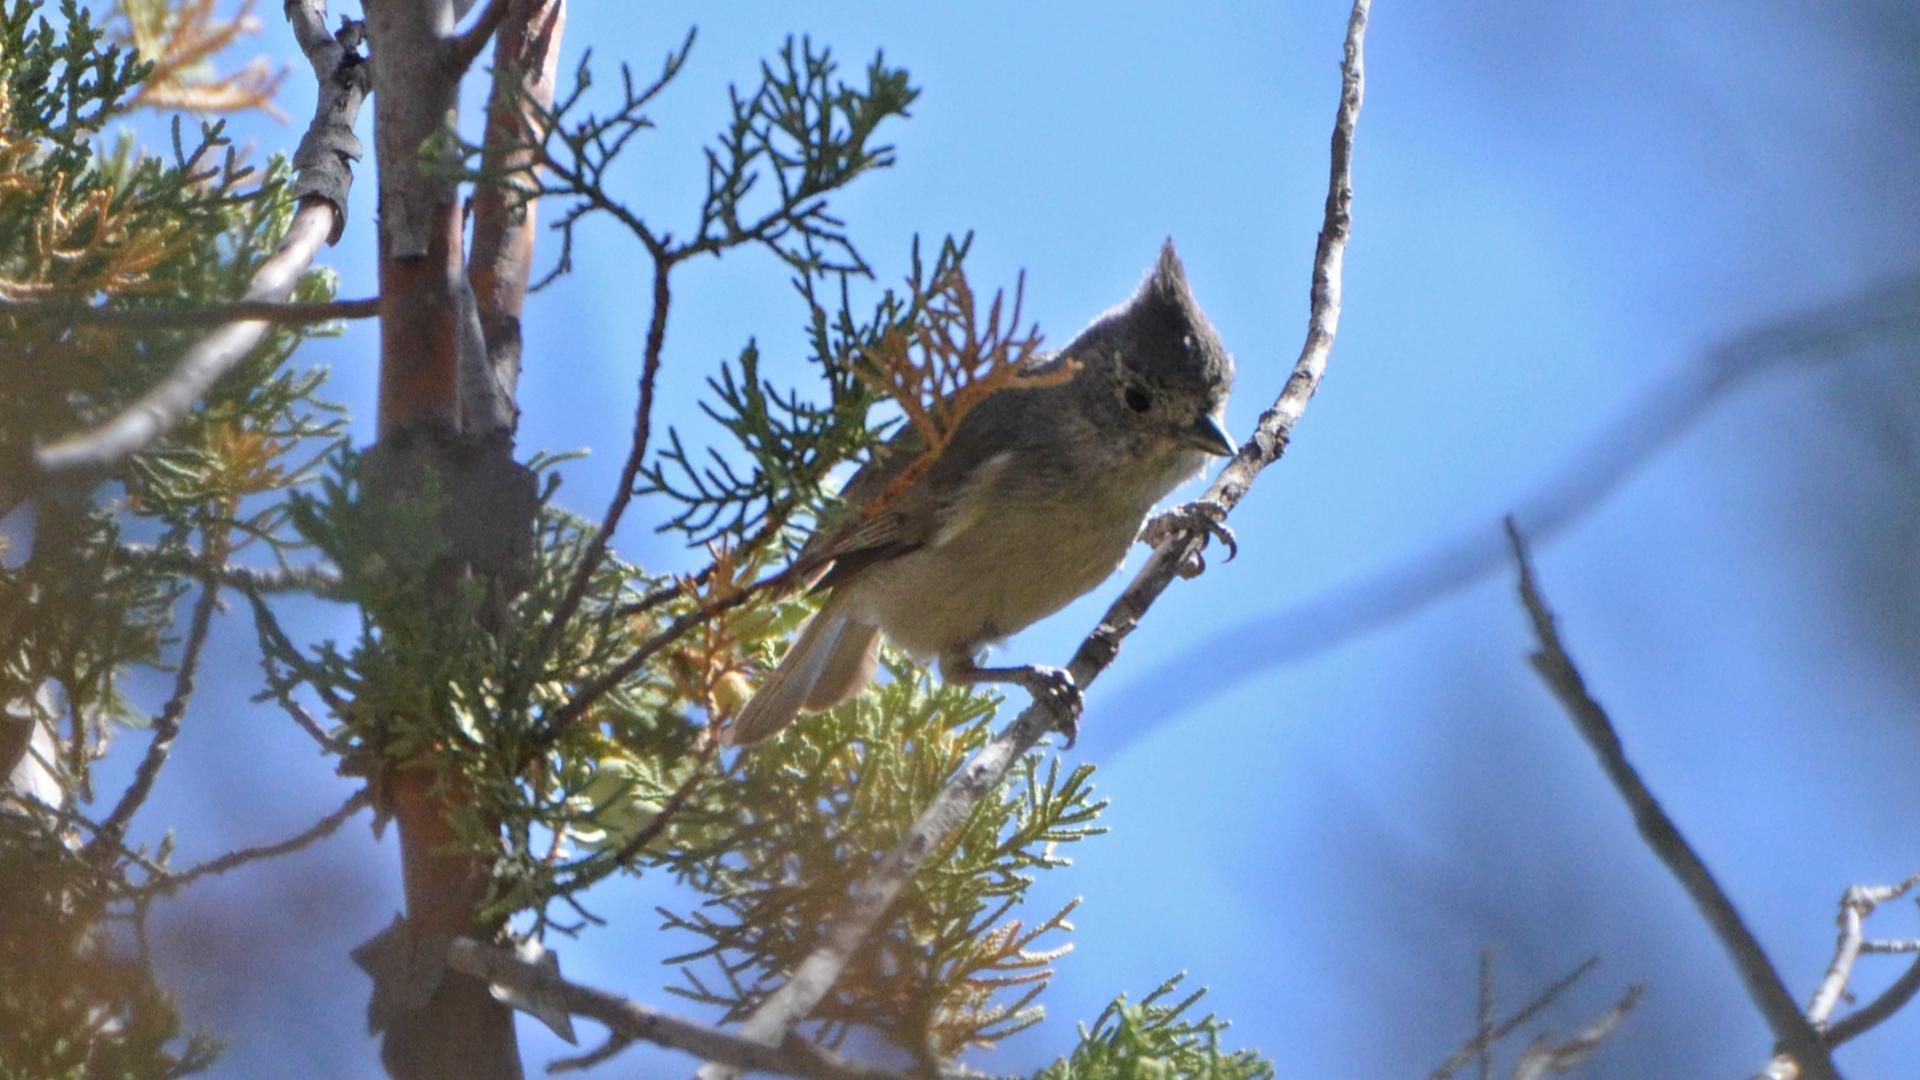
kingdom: Animalia
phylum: Chordata
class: Aves
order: Passeriformes
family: Paridae
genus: Baeolophus
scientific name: Baeolophus ridgwayi
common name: Juniper titmouse
